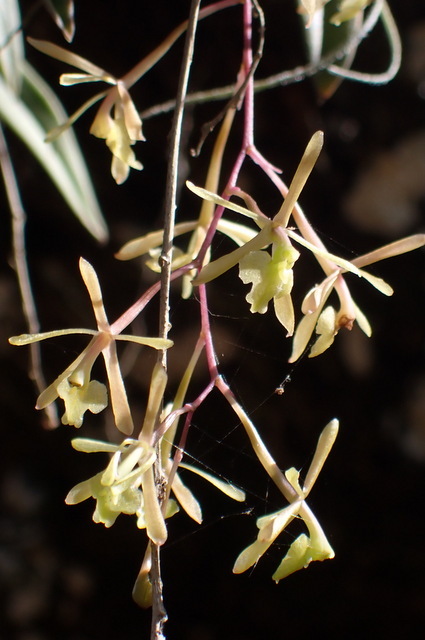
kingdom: Plantae
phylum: Tracheophyta
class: Liliopsida
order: Asparagales
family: Orchidaceae
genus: Epidendrum
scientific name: Epidendrum conopseum
